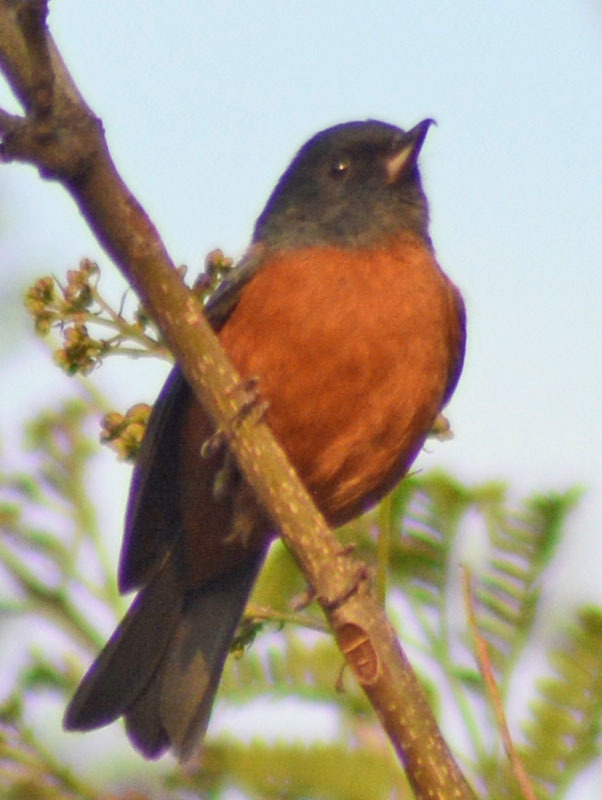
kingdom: Animalia
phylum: Chordata
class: Aves
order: Passeriformes
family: Thraupidae
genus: Diglossa
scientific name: Diglossa baritula
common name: Cinnamon-bellied flowerpiercer
